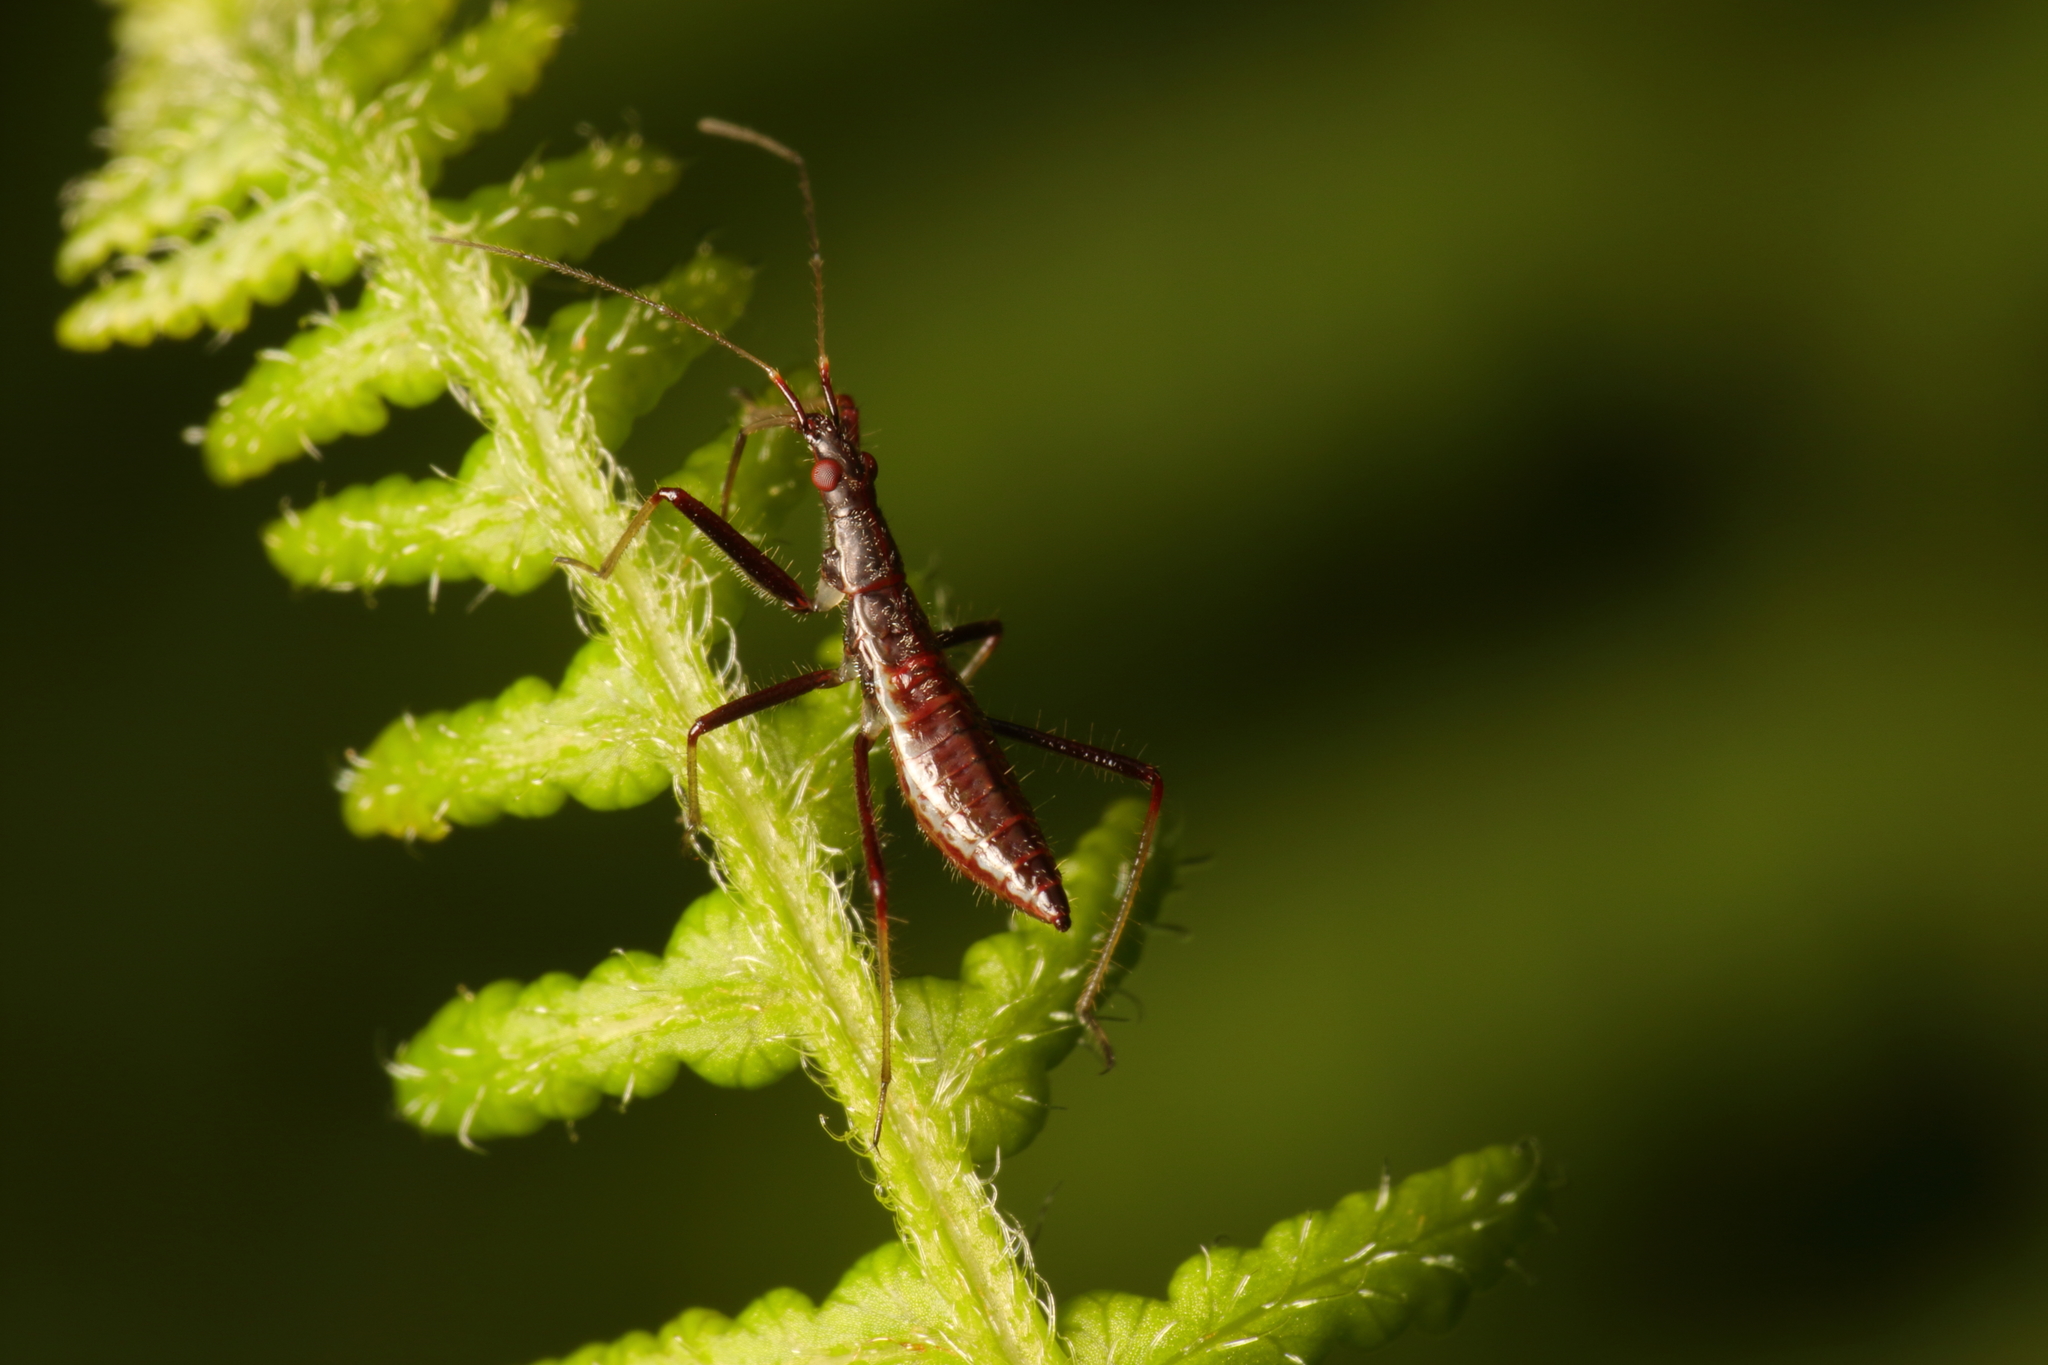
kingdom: Animalia
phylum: Arthropoda
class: Insecta
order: Hemiptera
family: Nabidae
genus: Nabis
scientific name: Nabis
